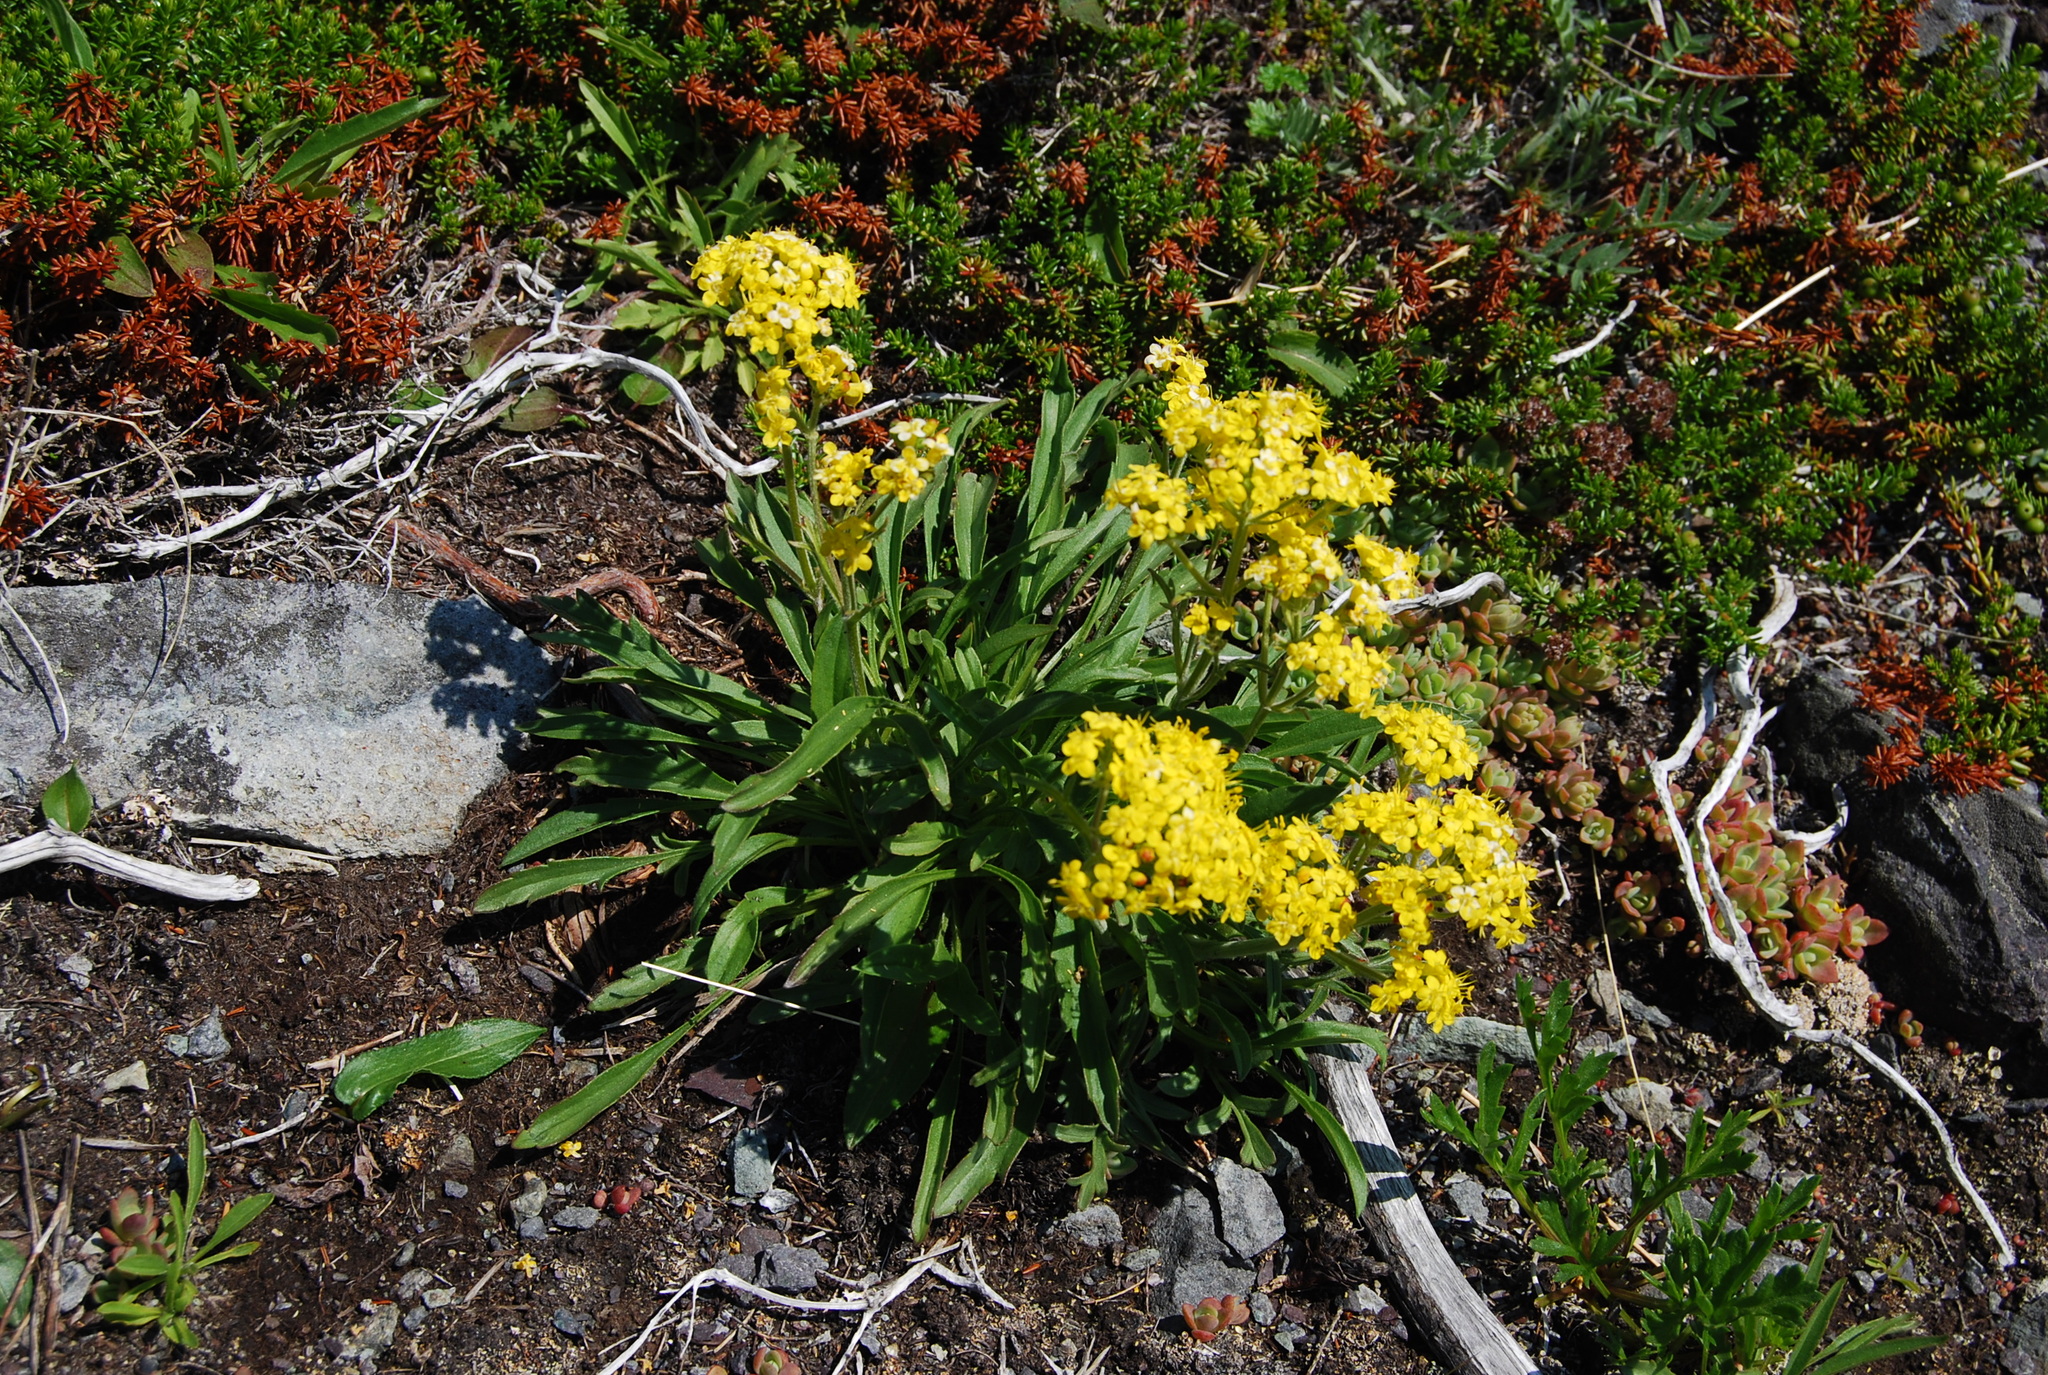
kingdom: Plantae
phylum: Tracheophyta
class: Magnoliopsida
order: Dipsacales
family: Caprifoliaceae
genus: Patrinia
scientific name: Patrinia sibirica
